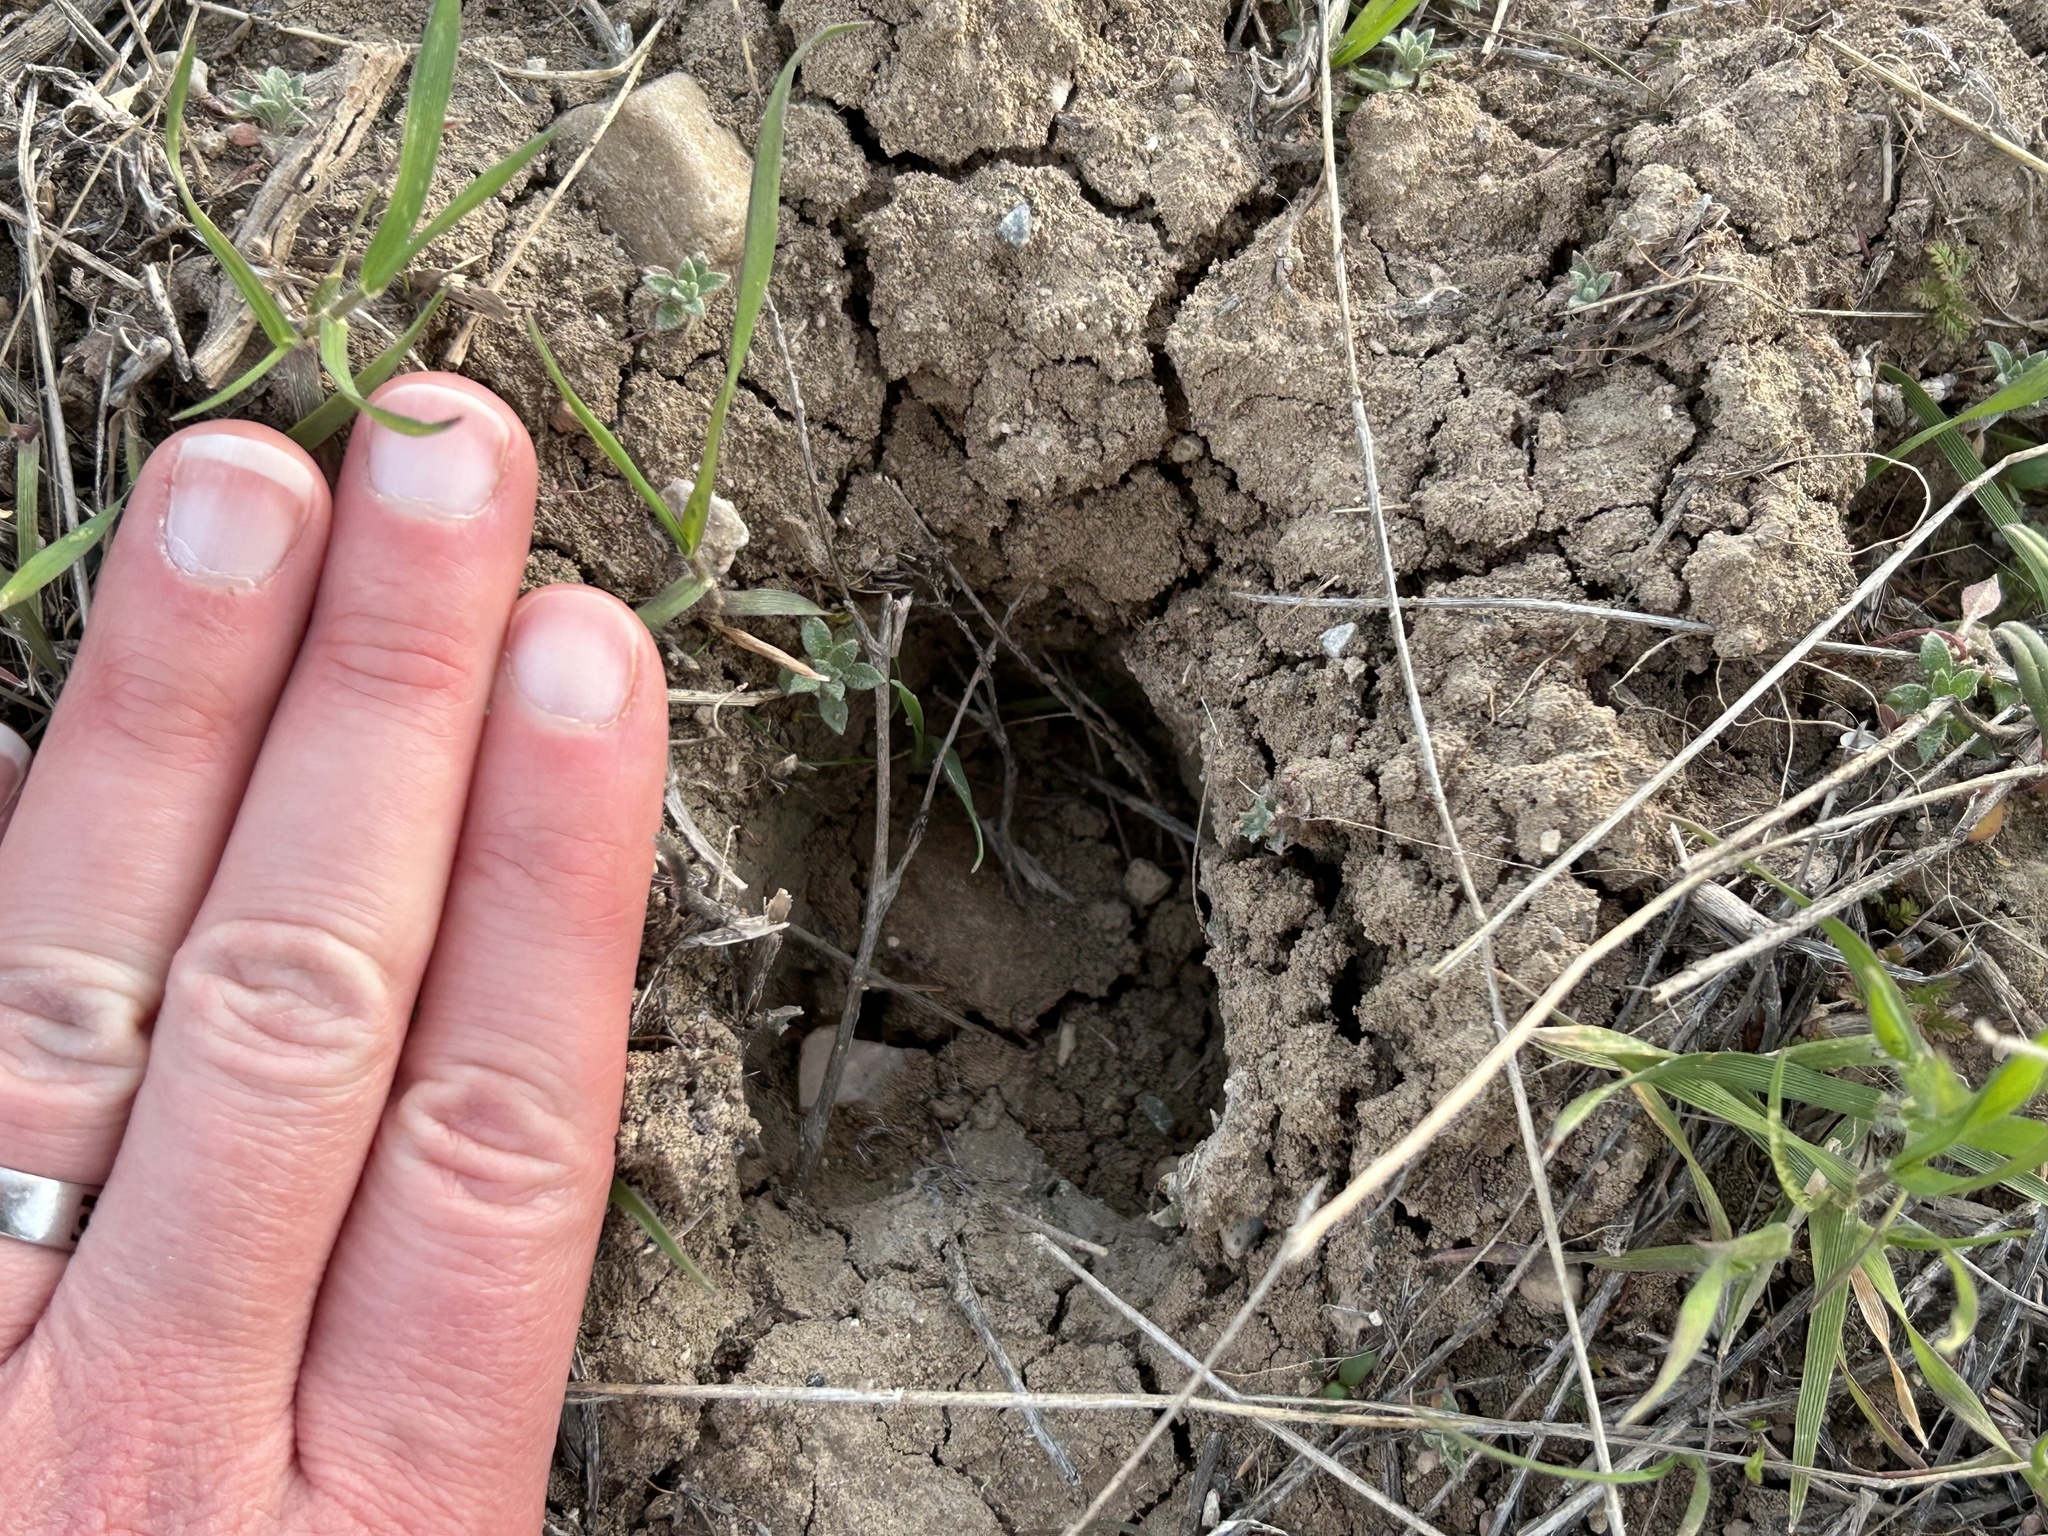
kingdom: Animalia
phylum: Chordata
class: Mammalia
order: Artiodactyla
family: Cervidae
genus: Odocoileus
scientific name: Odocoileus hemionus
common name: Mule deer
